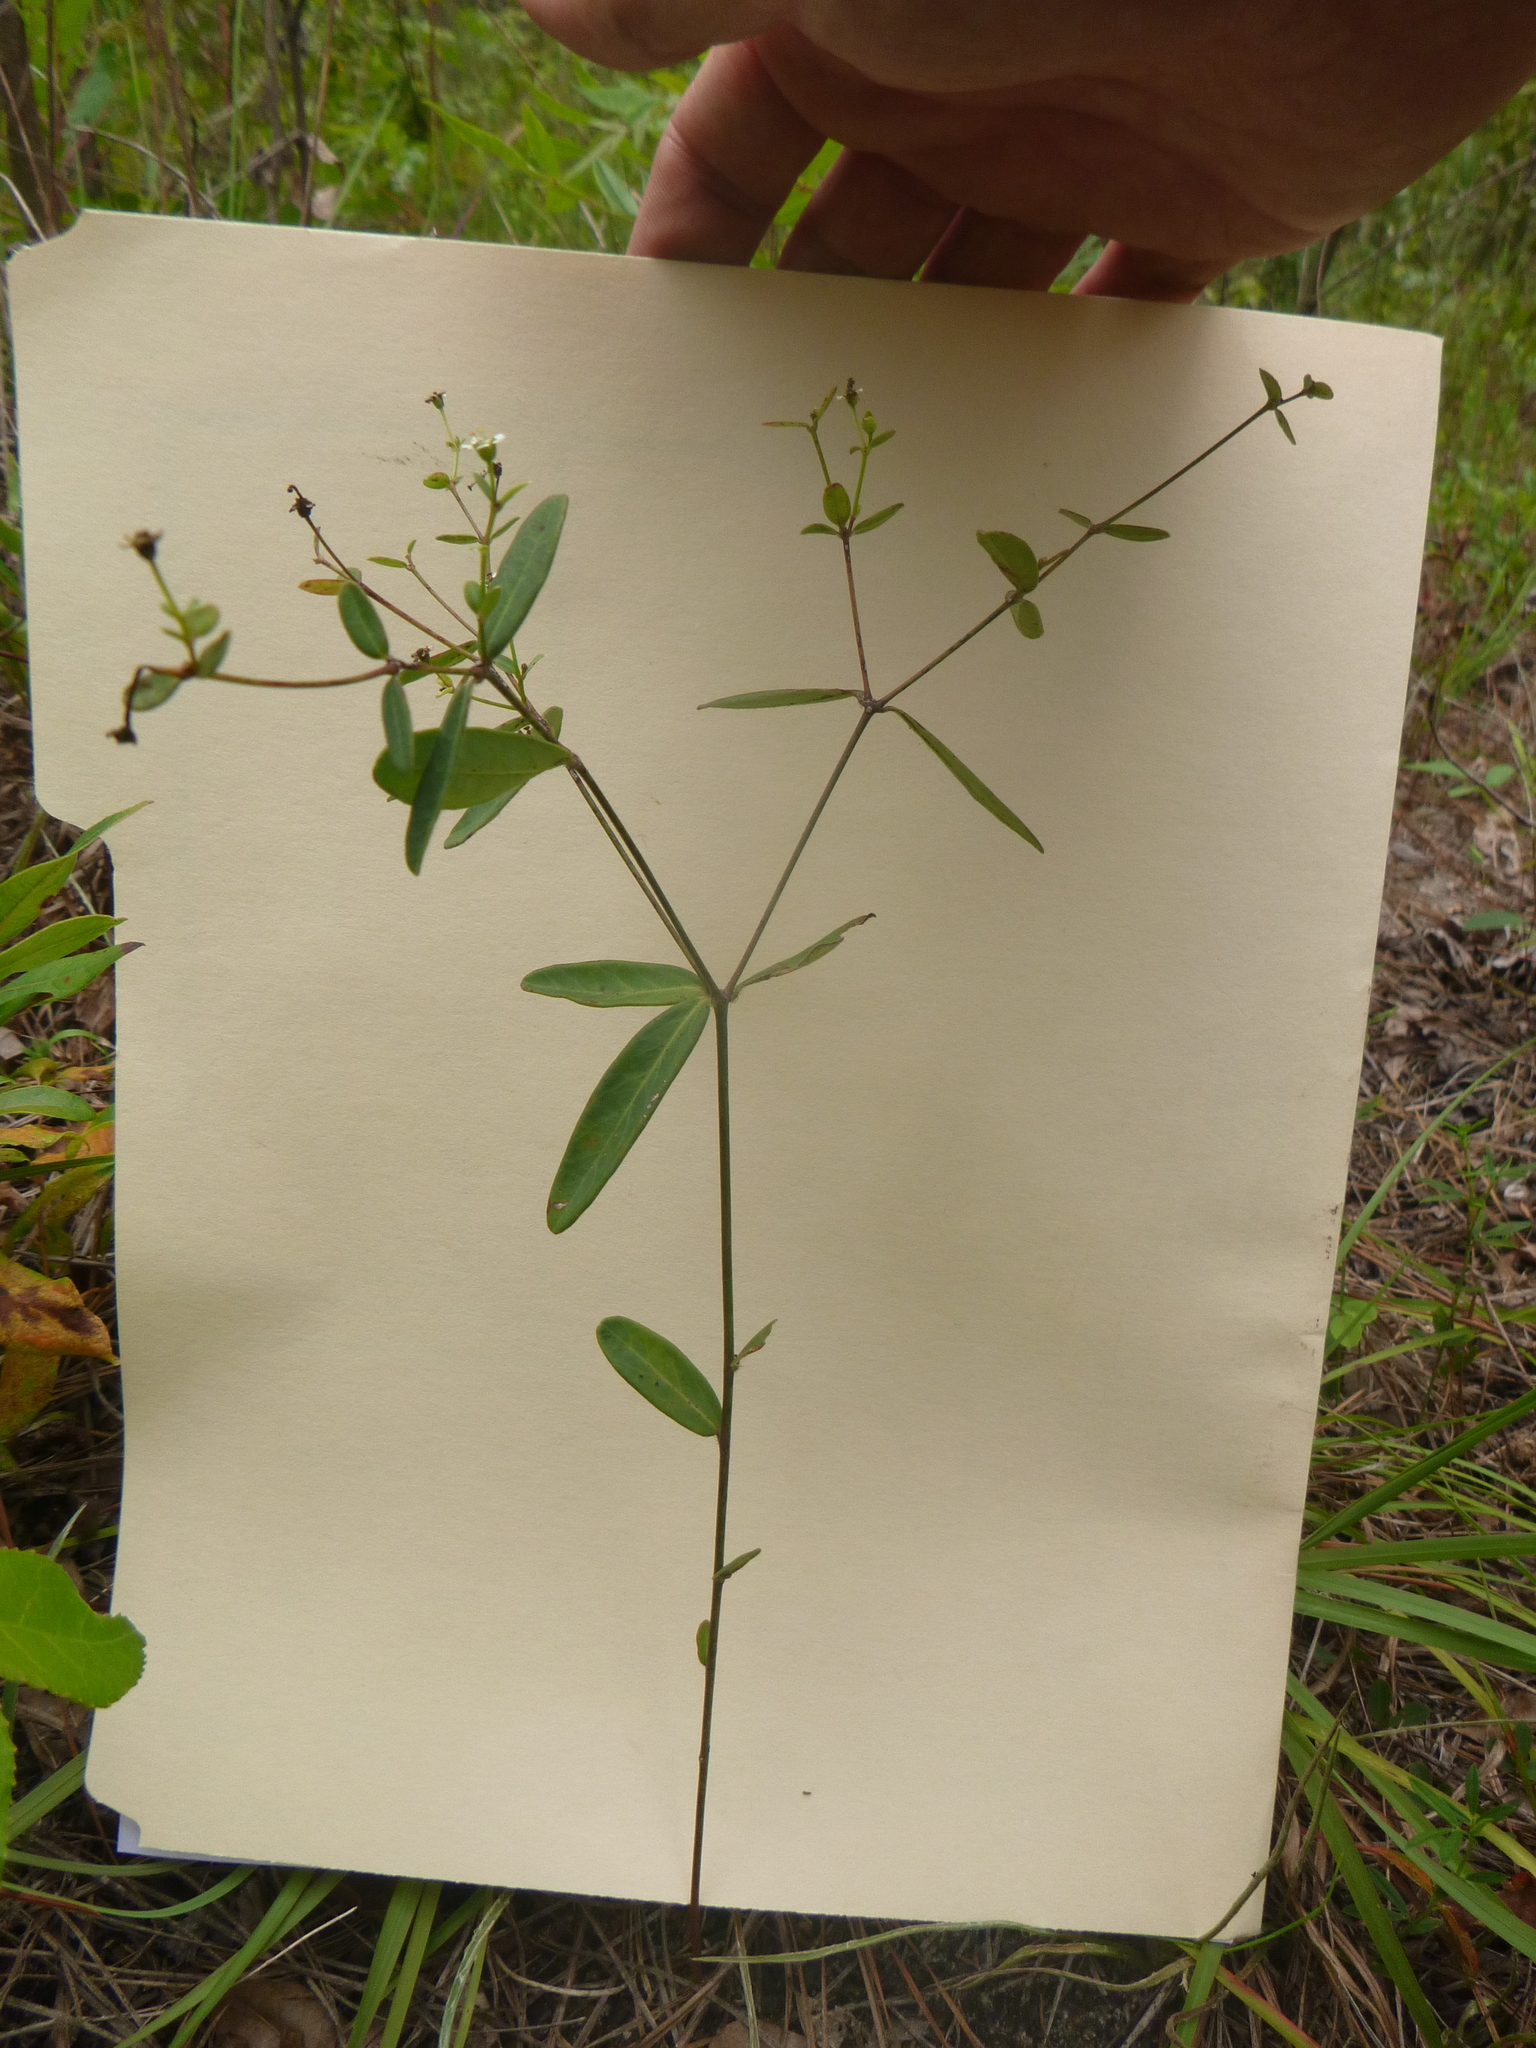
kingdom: Plantae
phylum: Tracheophyta
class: Magnoliopsida
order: Malpighiales
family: Euphorbiaceae
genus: Euphorbia
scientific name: Euphorbia pubentissima
